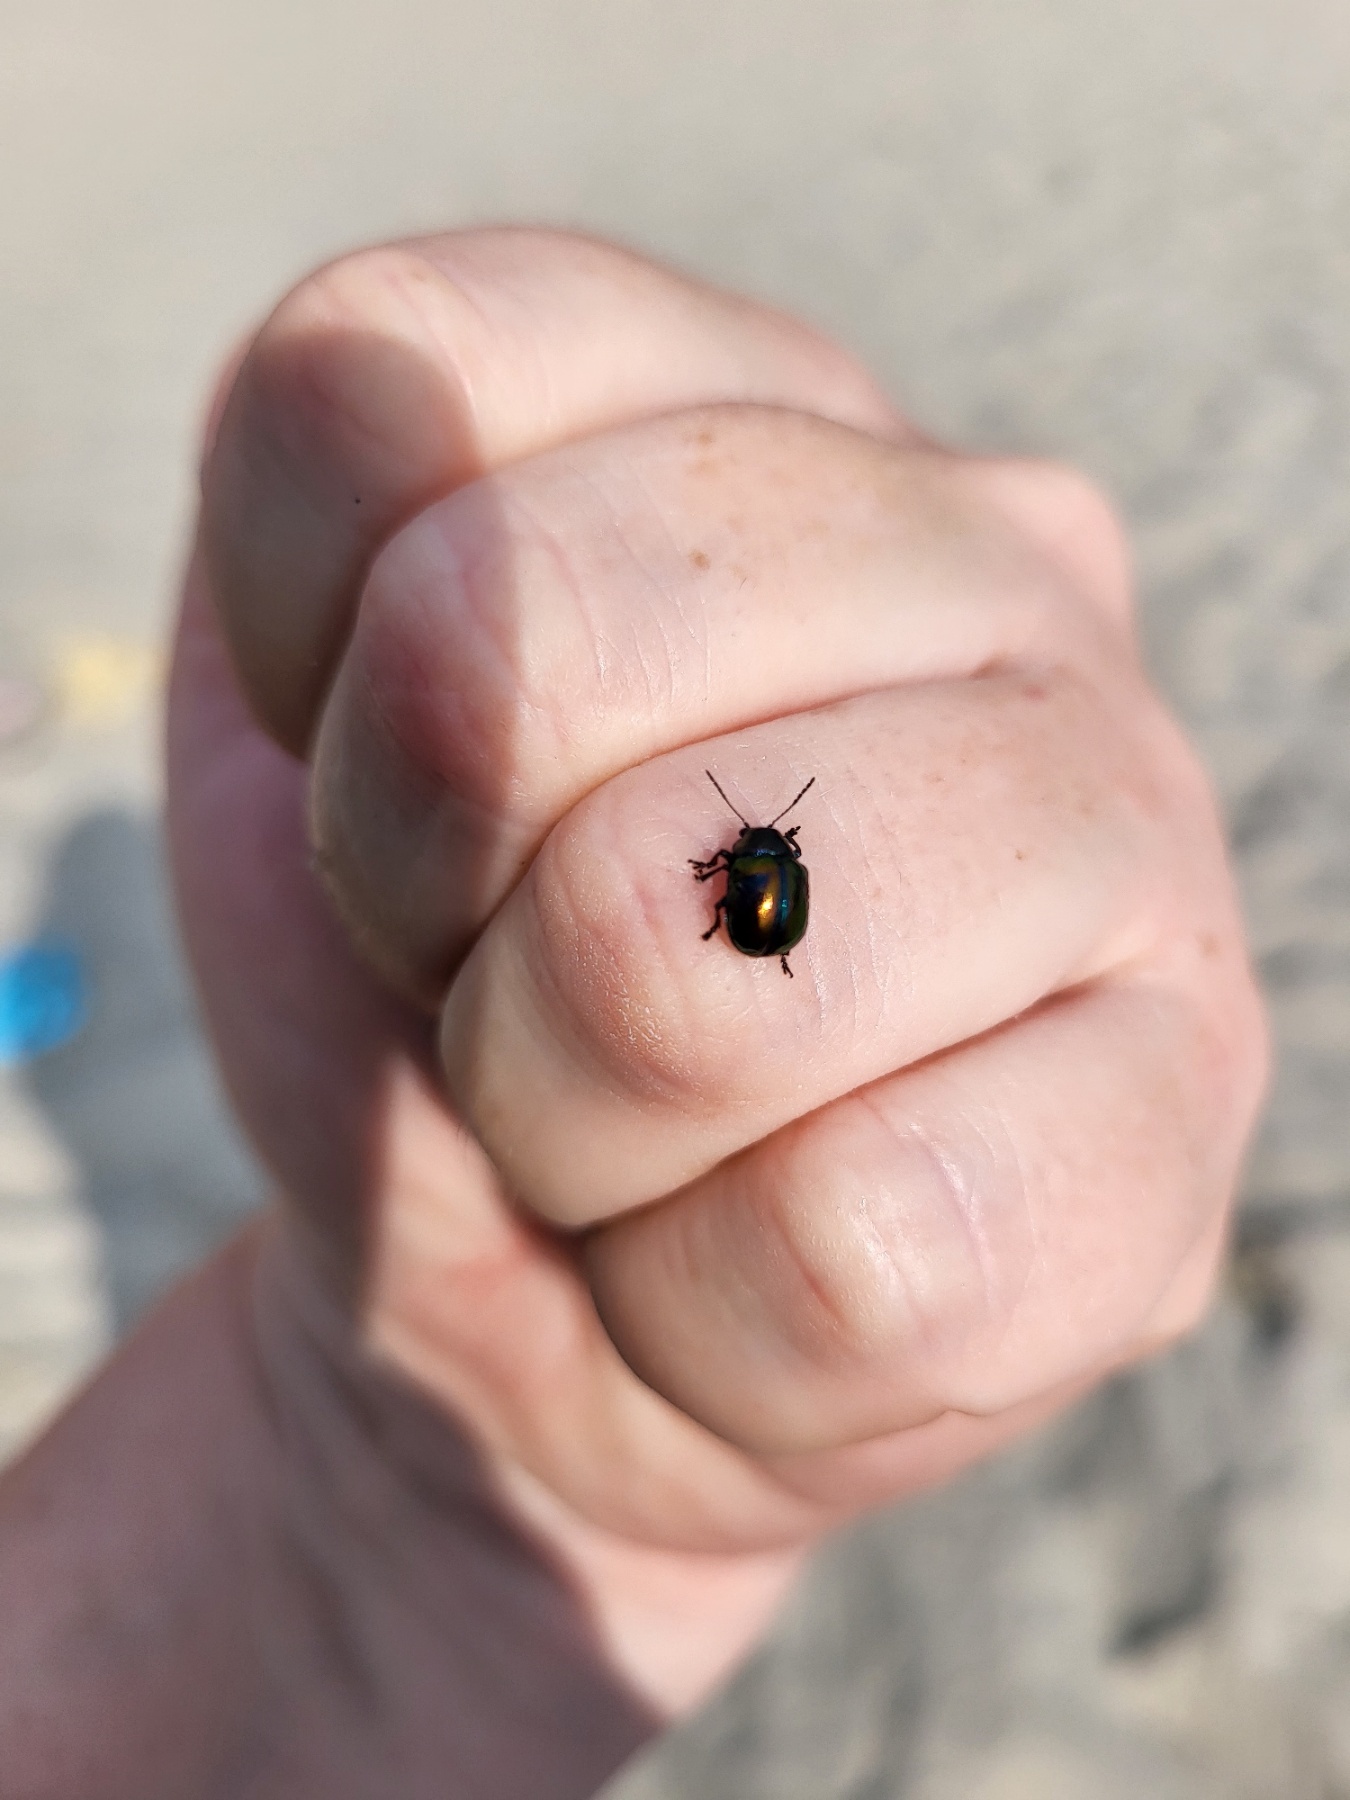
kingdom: Animalia
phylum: Arthropoda
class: Insecta
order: Coleoptera
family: Chrysomelidae
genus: Colasposoma
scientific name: Colasposoma viridicoeruleum
